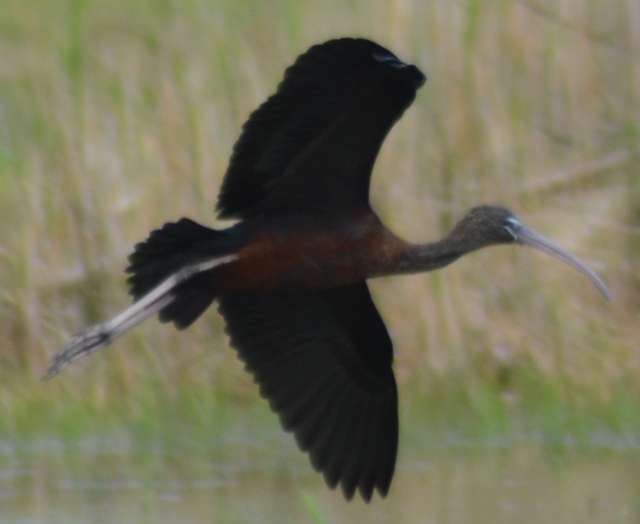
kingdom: Animalia
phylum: Chordata
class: Aves
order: Pelecaniformes
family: Threskiornithidae
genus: Plegadis
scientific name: Plegadis falcinellus
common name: Glossy ibis
